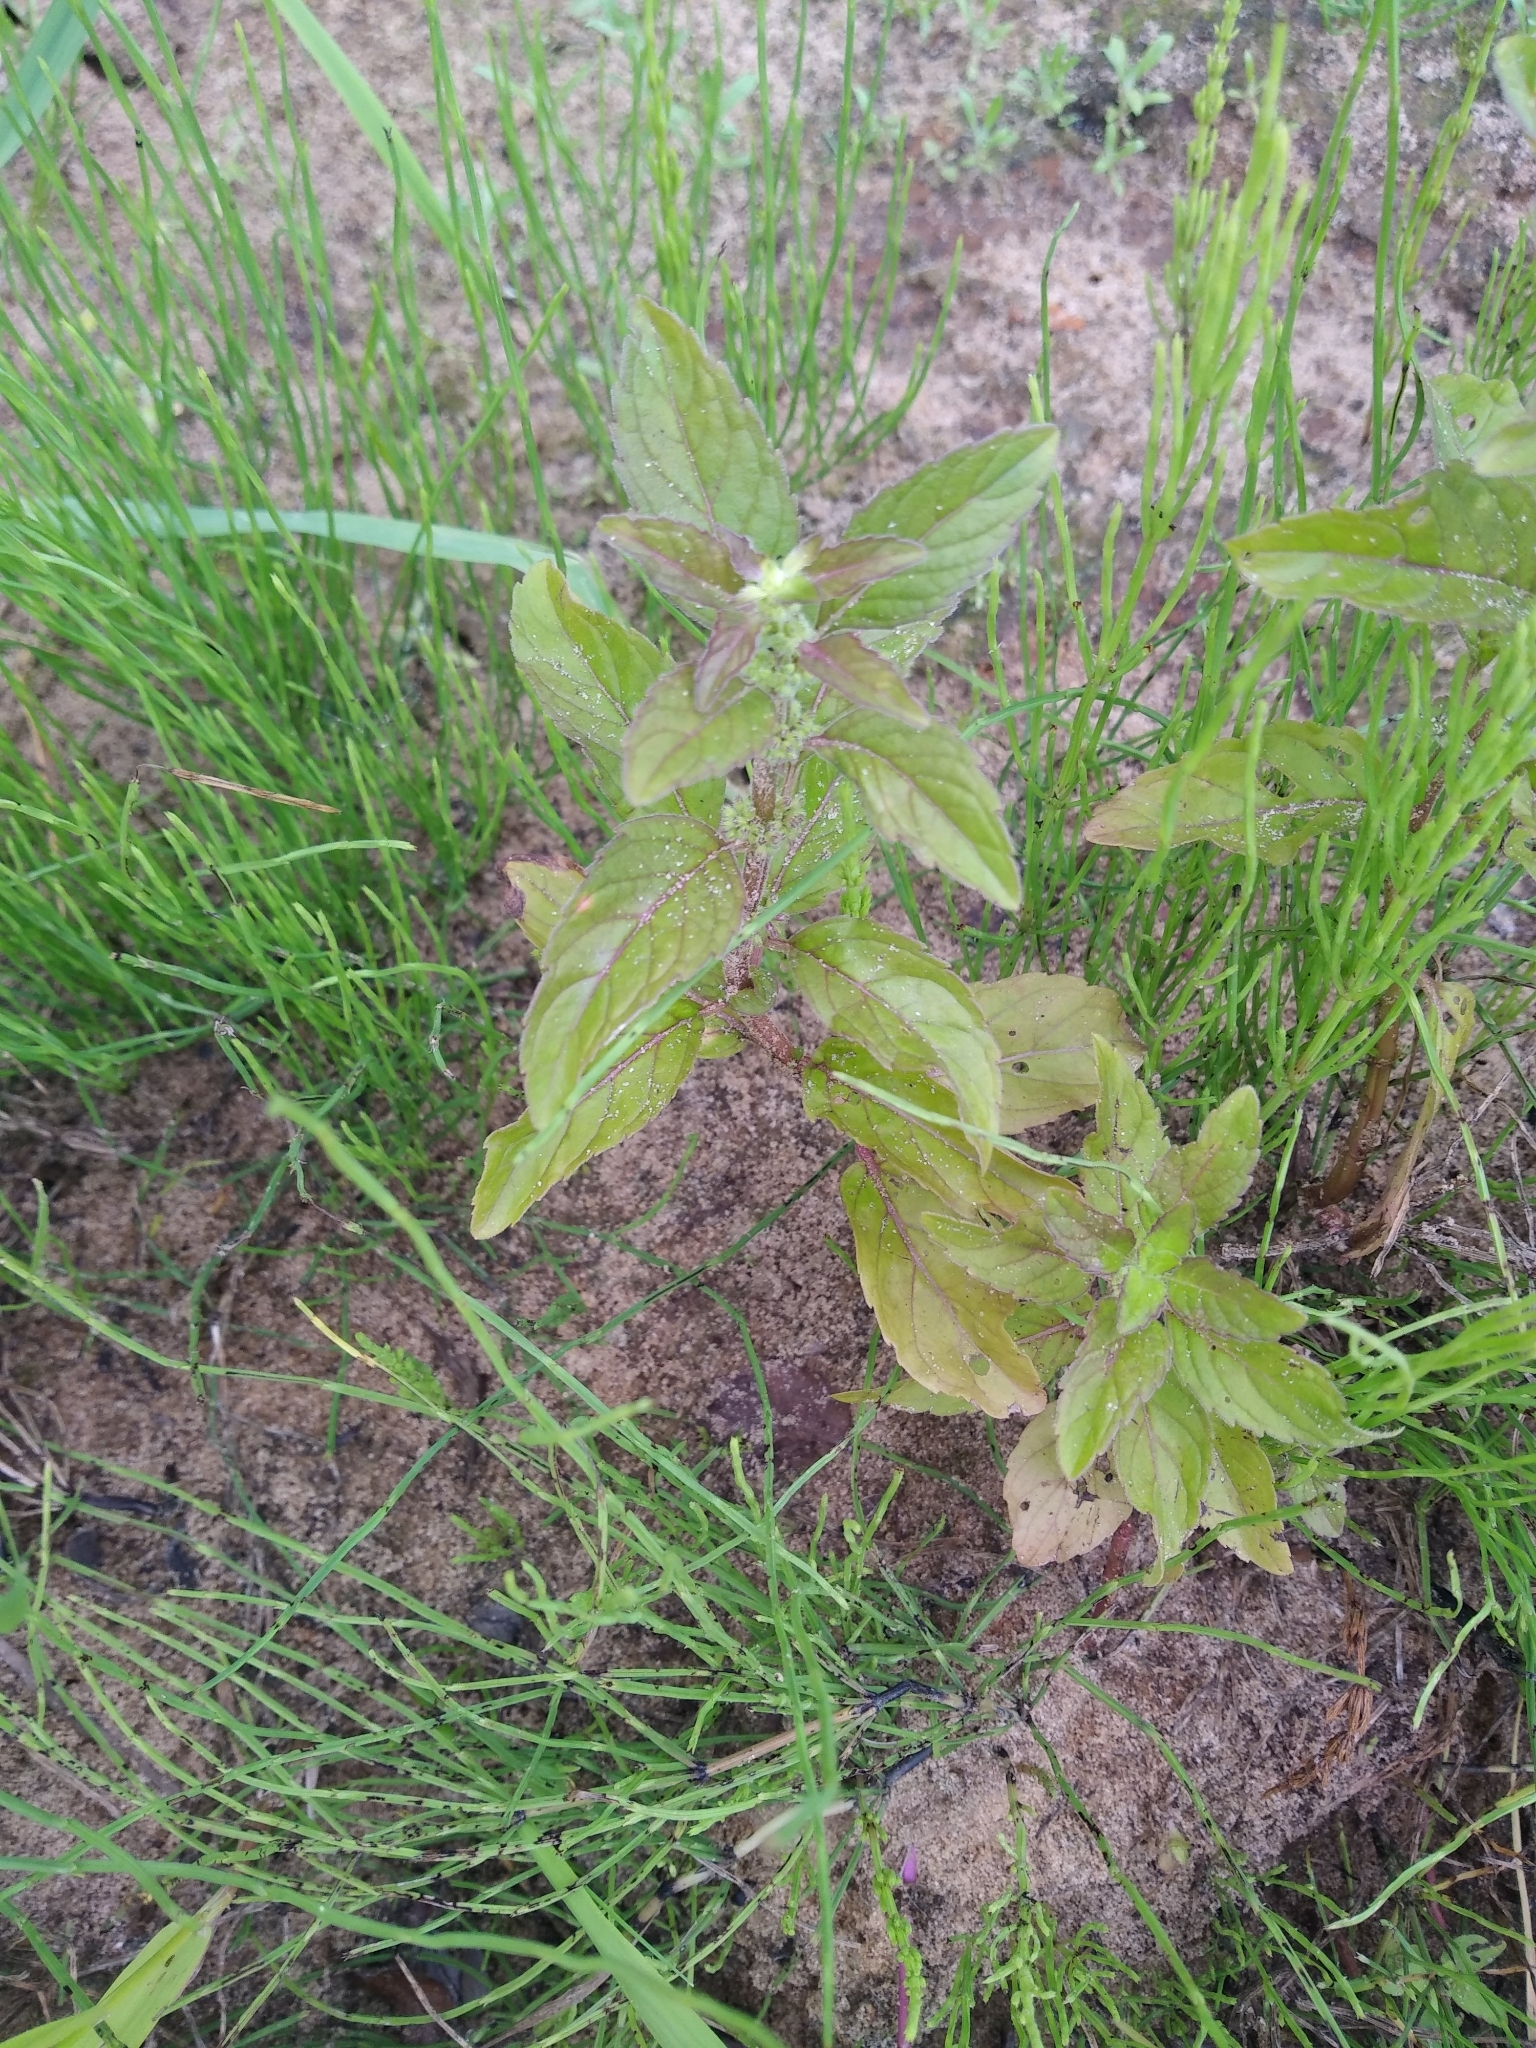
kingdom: Plantae
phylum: Tracheophyta
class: Magnoliopsida
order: Lamiales
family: Lamiaceae
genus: Mentha
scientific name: Mentha arvensis
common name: Corn mint
